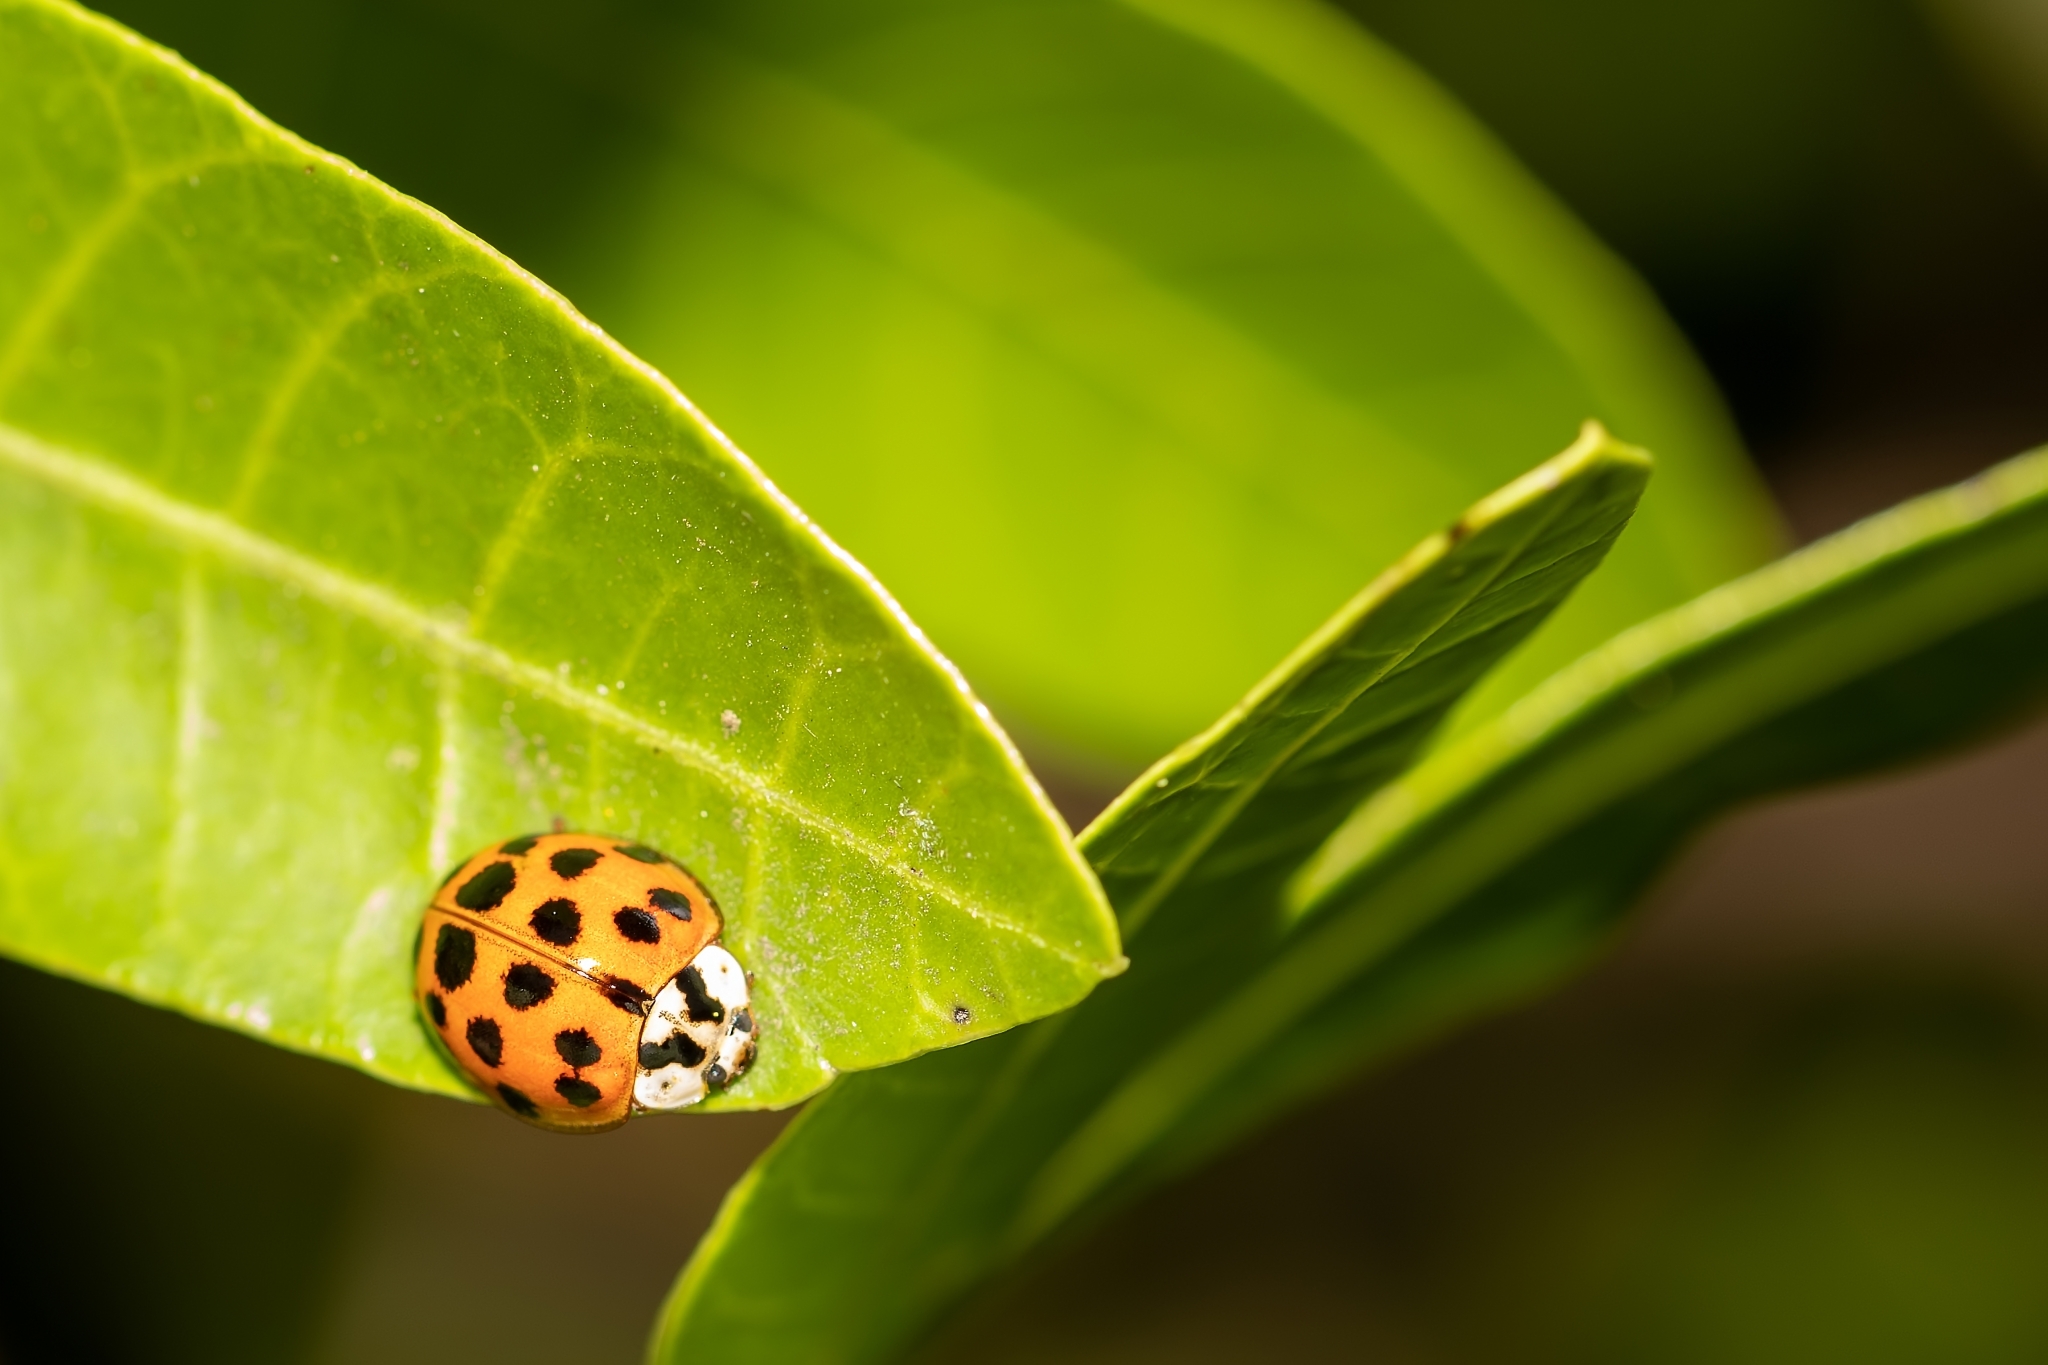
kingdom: Animalia
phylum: Arthropoda
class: Insecta
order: Coleoptera
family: Coccinellidae
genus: Harmonia
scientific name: Harmonia axyridis
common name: Harlequin ladybird
